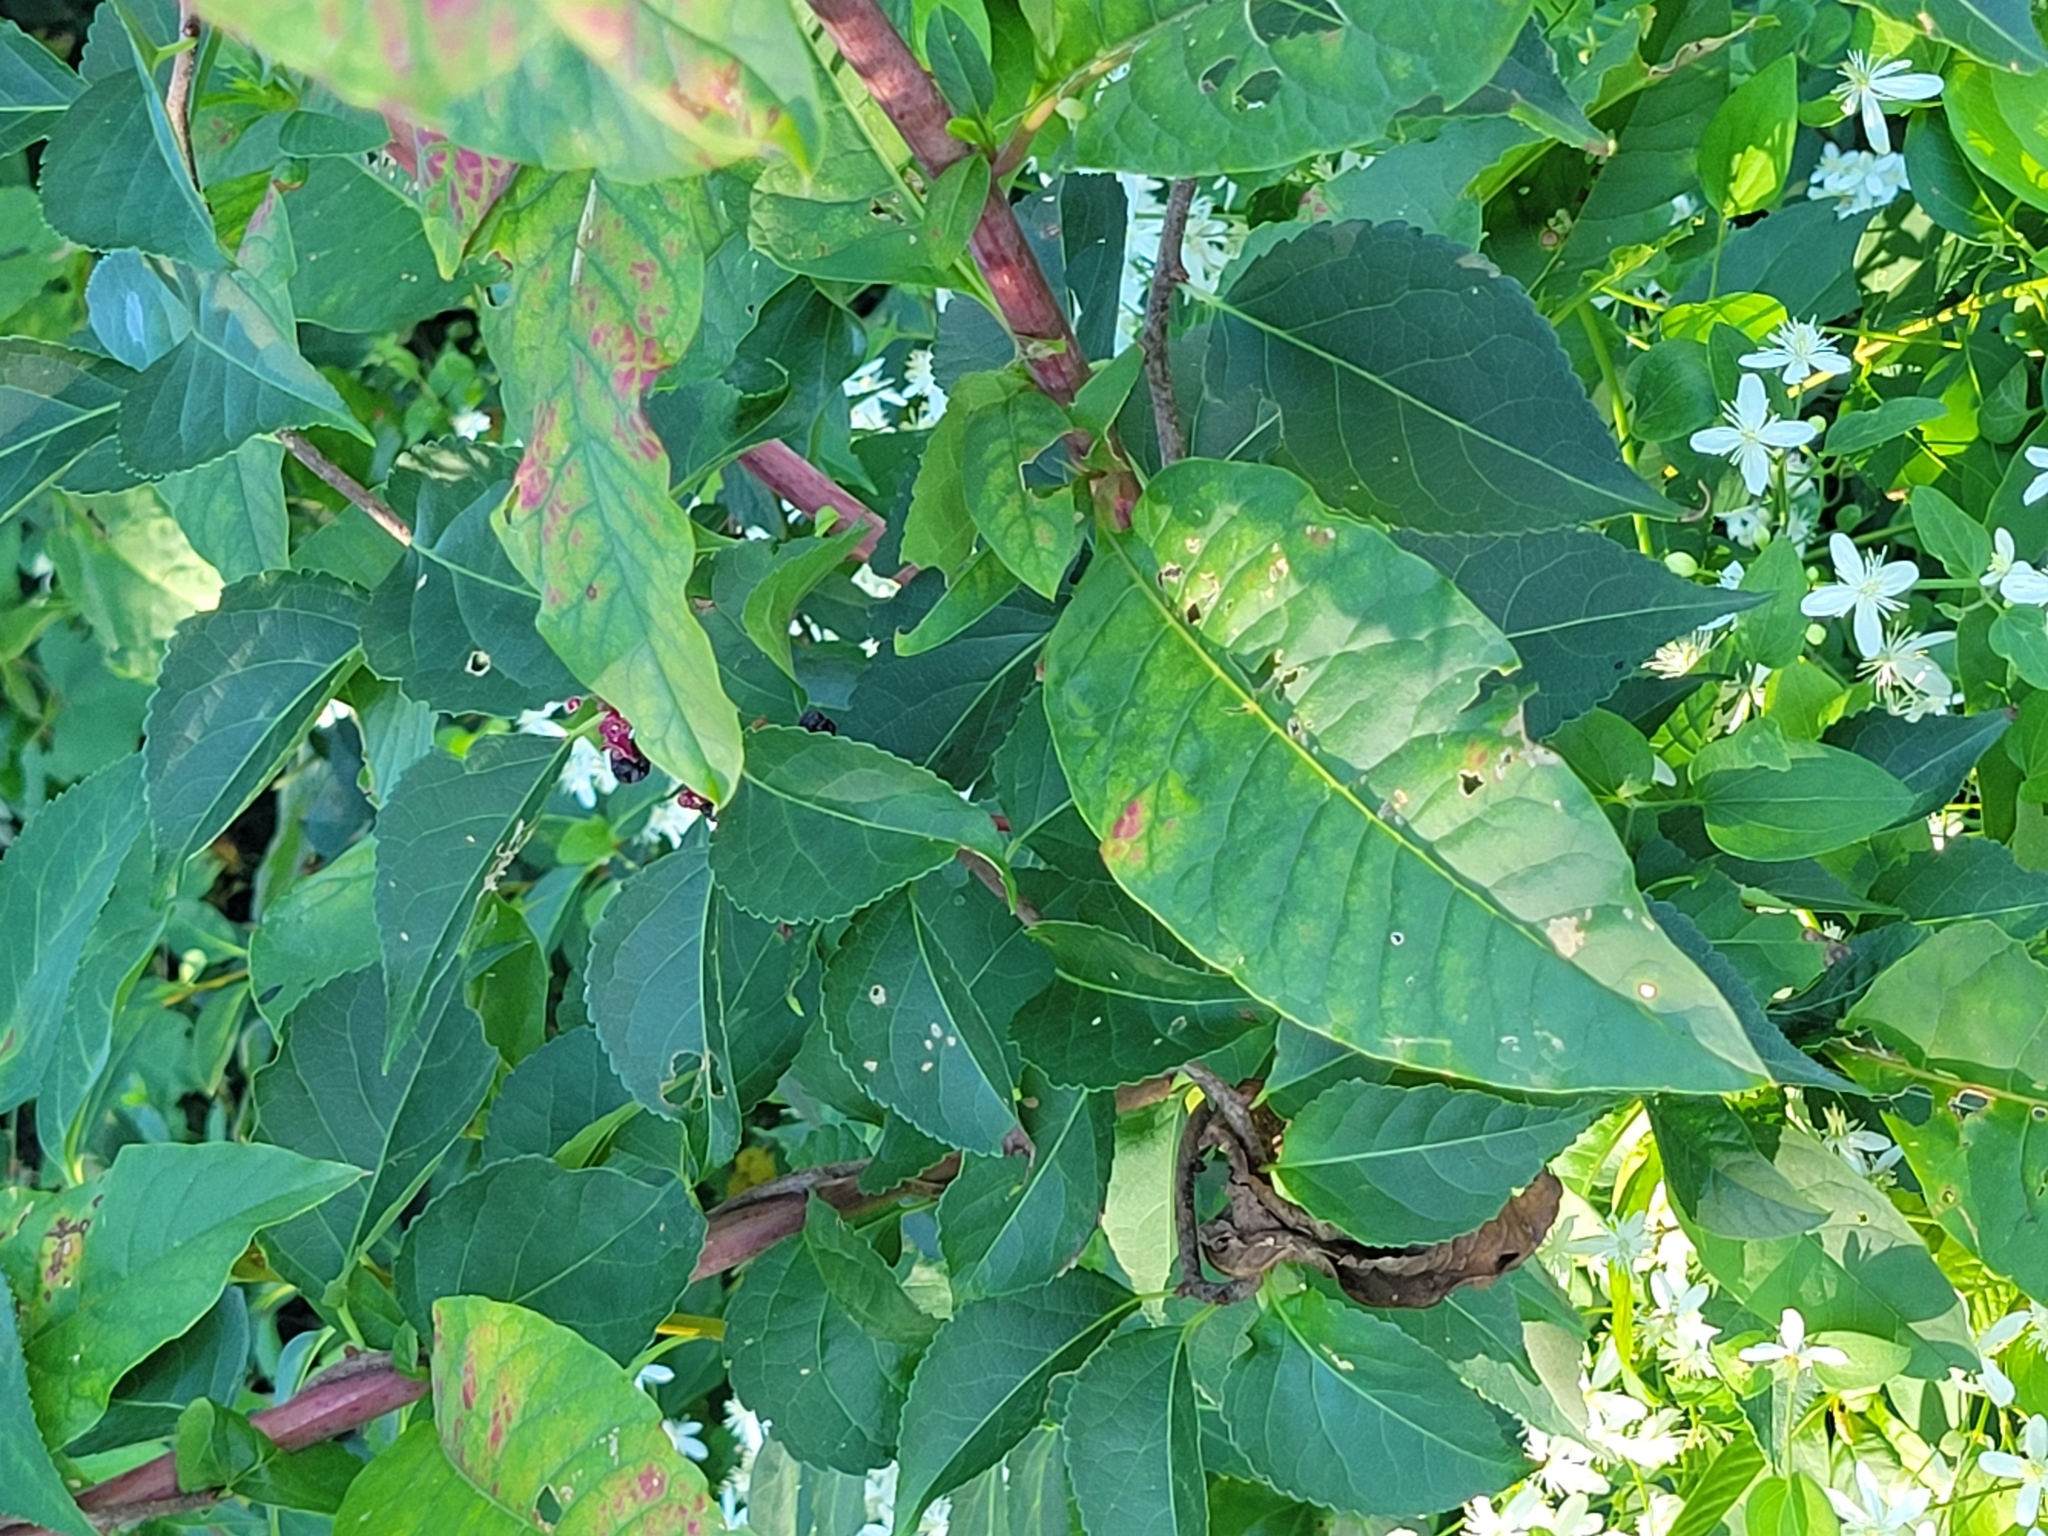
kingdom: Plantae
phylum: Tracheophyta
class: Magnoliopsida
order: Caryophyllales
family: Phytolaccaceae
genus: Phytolacca
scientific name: Phytolacca americana
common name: American pokeweed
